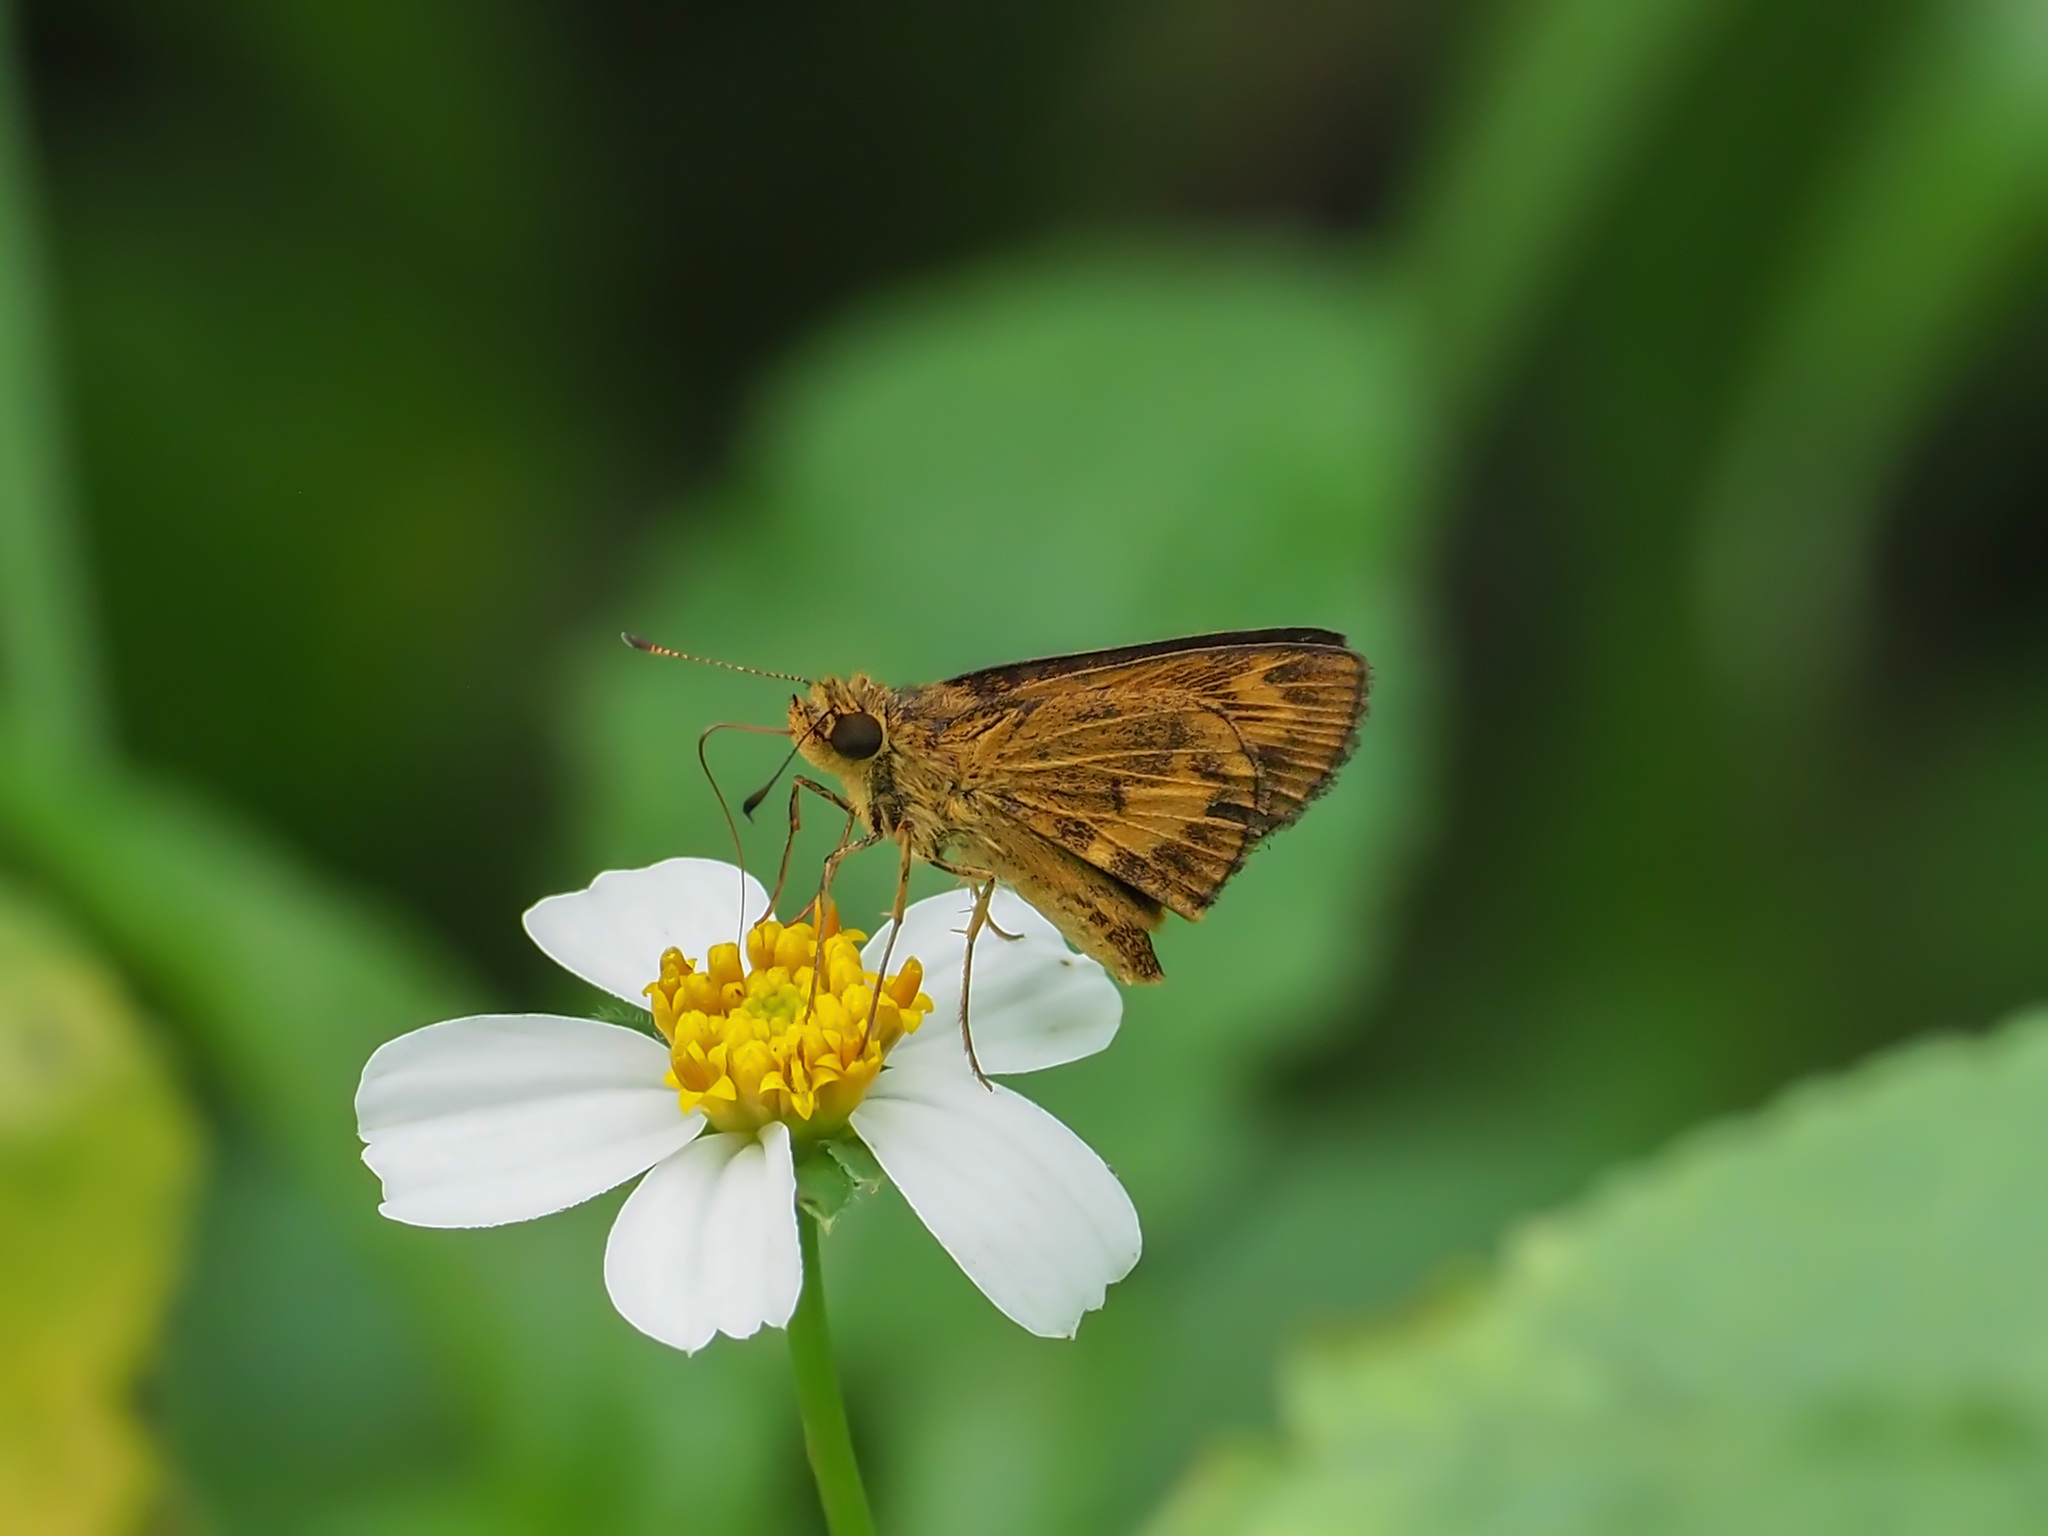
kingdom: Animalia
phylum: Arthropoda
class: Insecta
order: Lepidoptera
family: Hesperiidae
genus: Oriens
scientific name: Oriens gola
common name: Common dartlet
